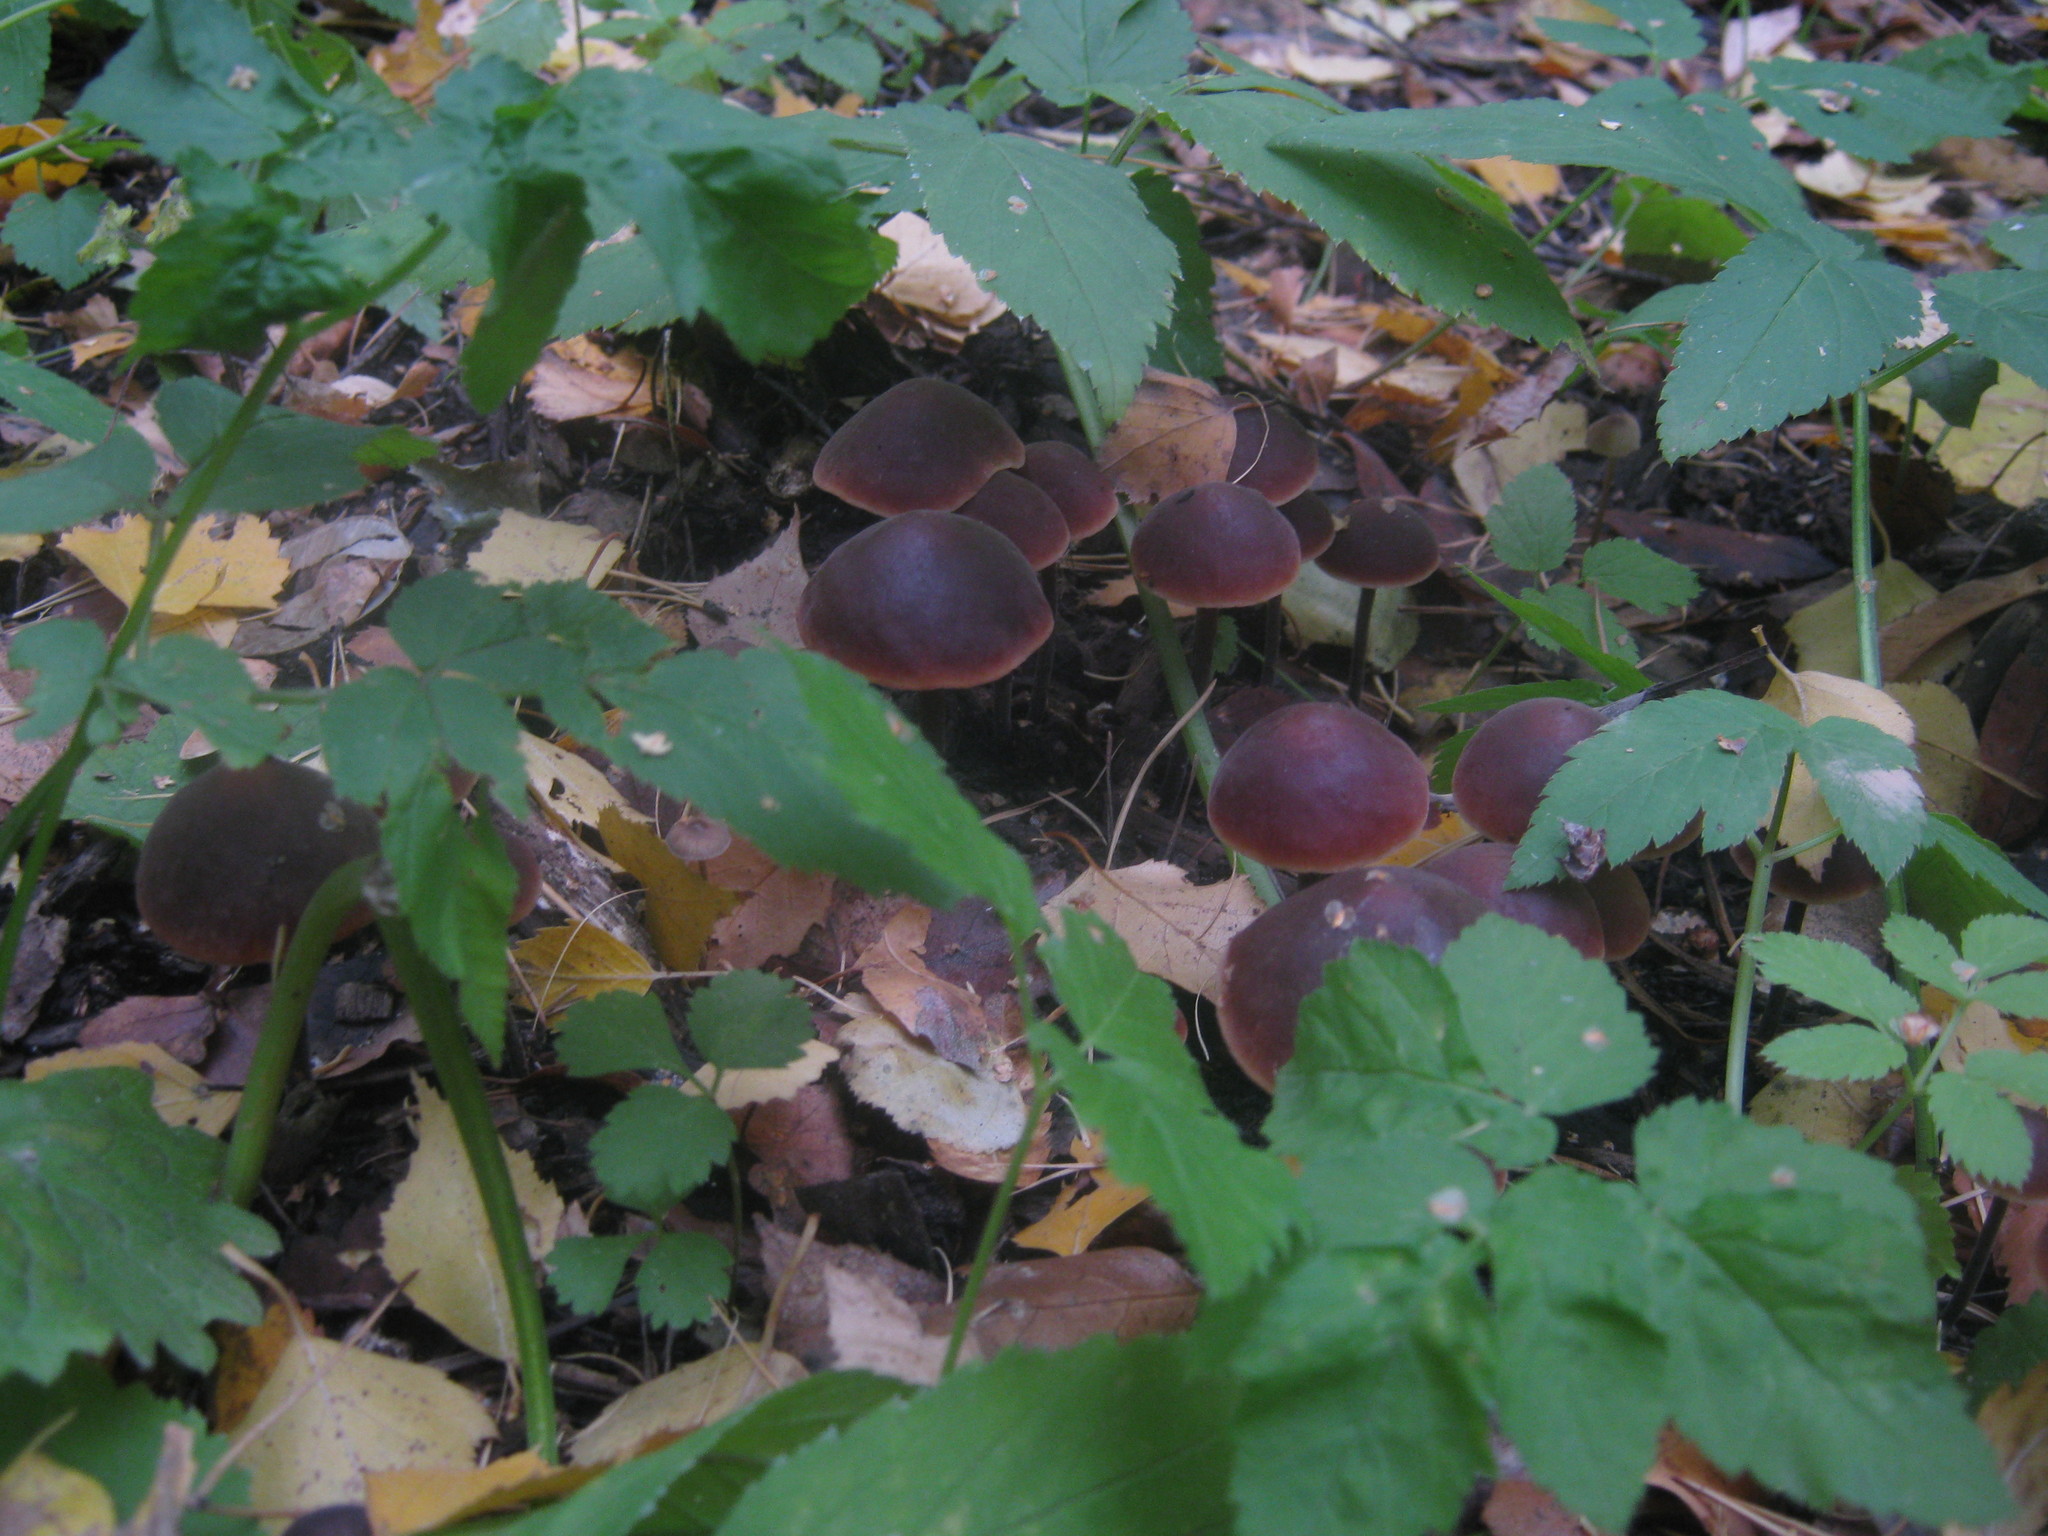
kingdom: Fungi
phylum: Basidiomycota
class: Agaricomycetes
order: Agaricales
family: Macrocystidiaceae
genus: Macrocystidia
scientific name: Macrocystidia cucumis
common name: Cucumber cap
